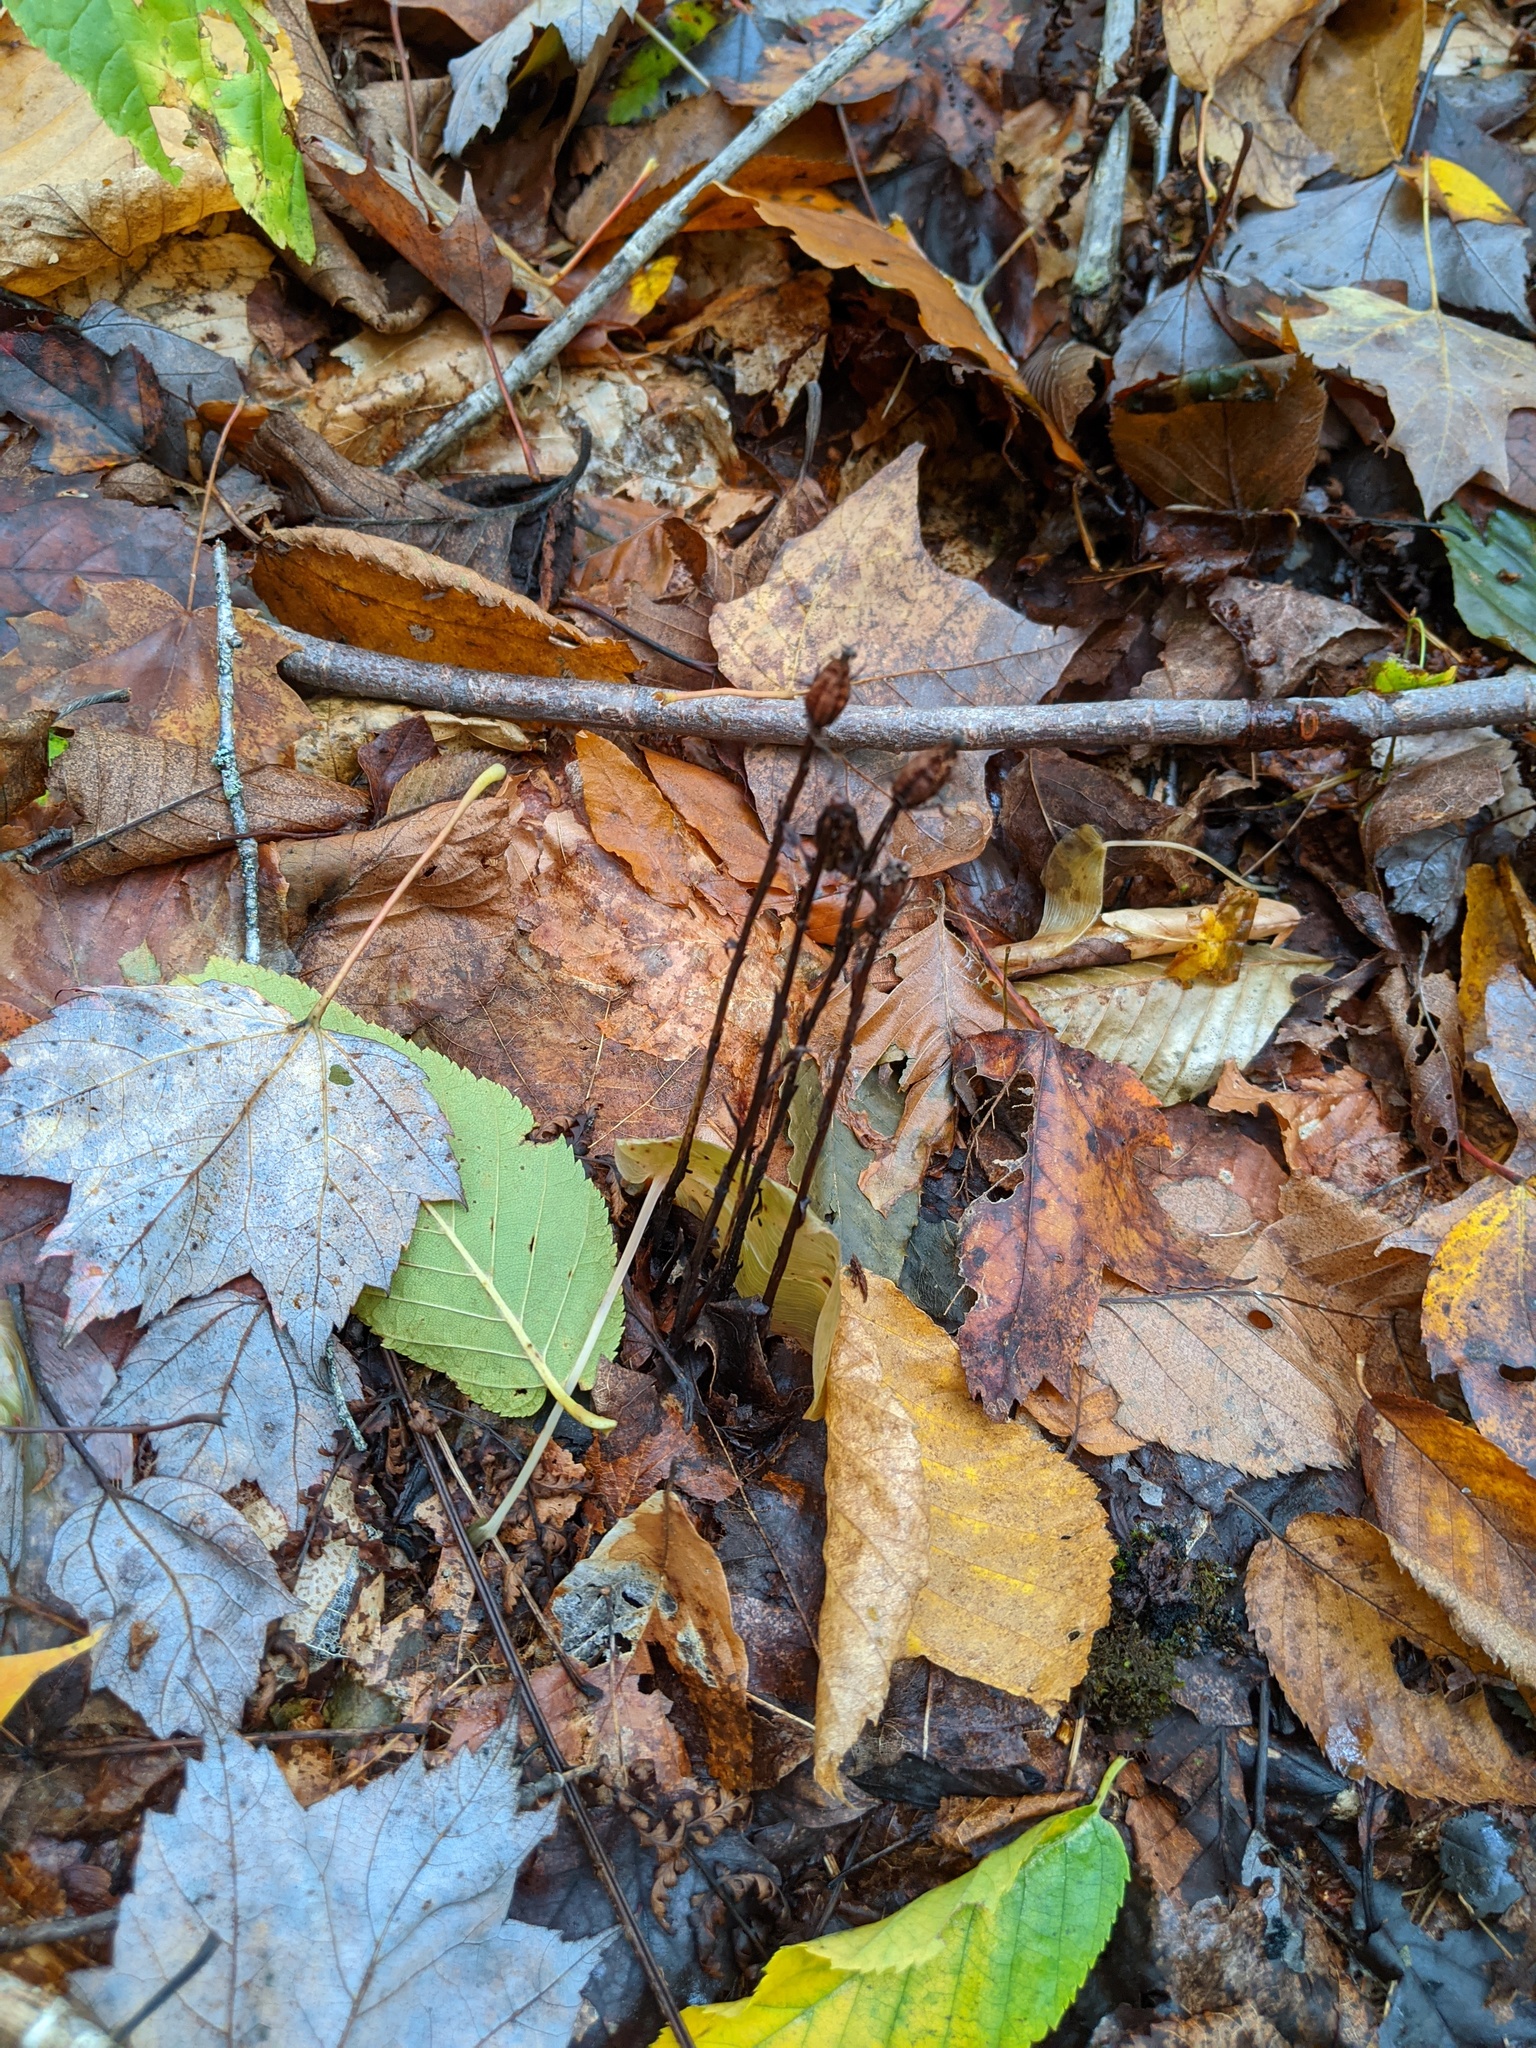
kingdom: Plantae
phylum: Tracheophyta
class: Magnoliopsida
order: Ericales
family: Ericaceae
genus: Monotropa
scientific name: Monotropa uniflora
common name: Convulsion root
